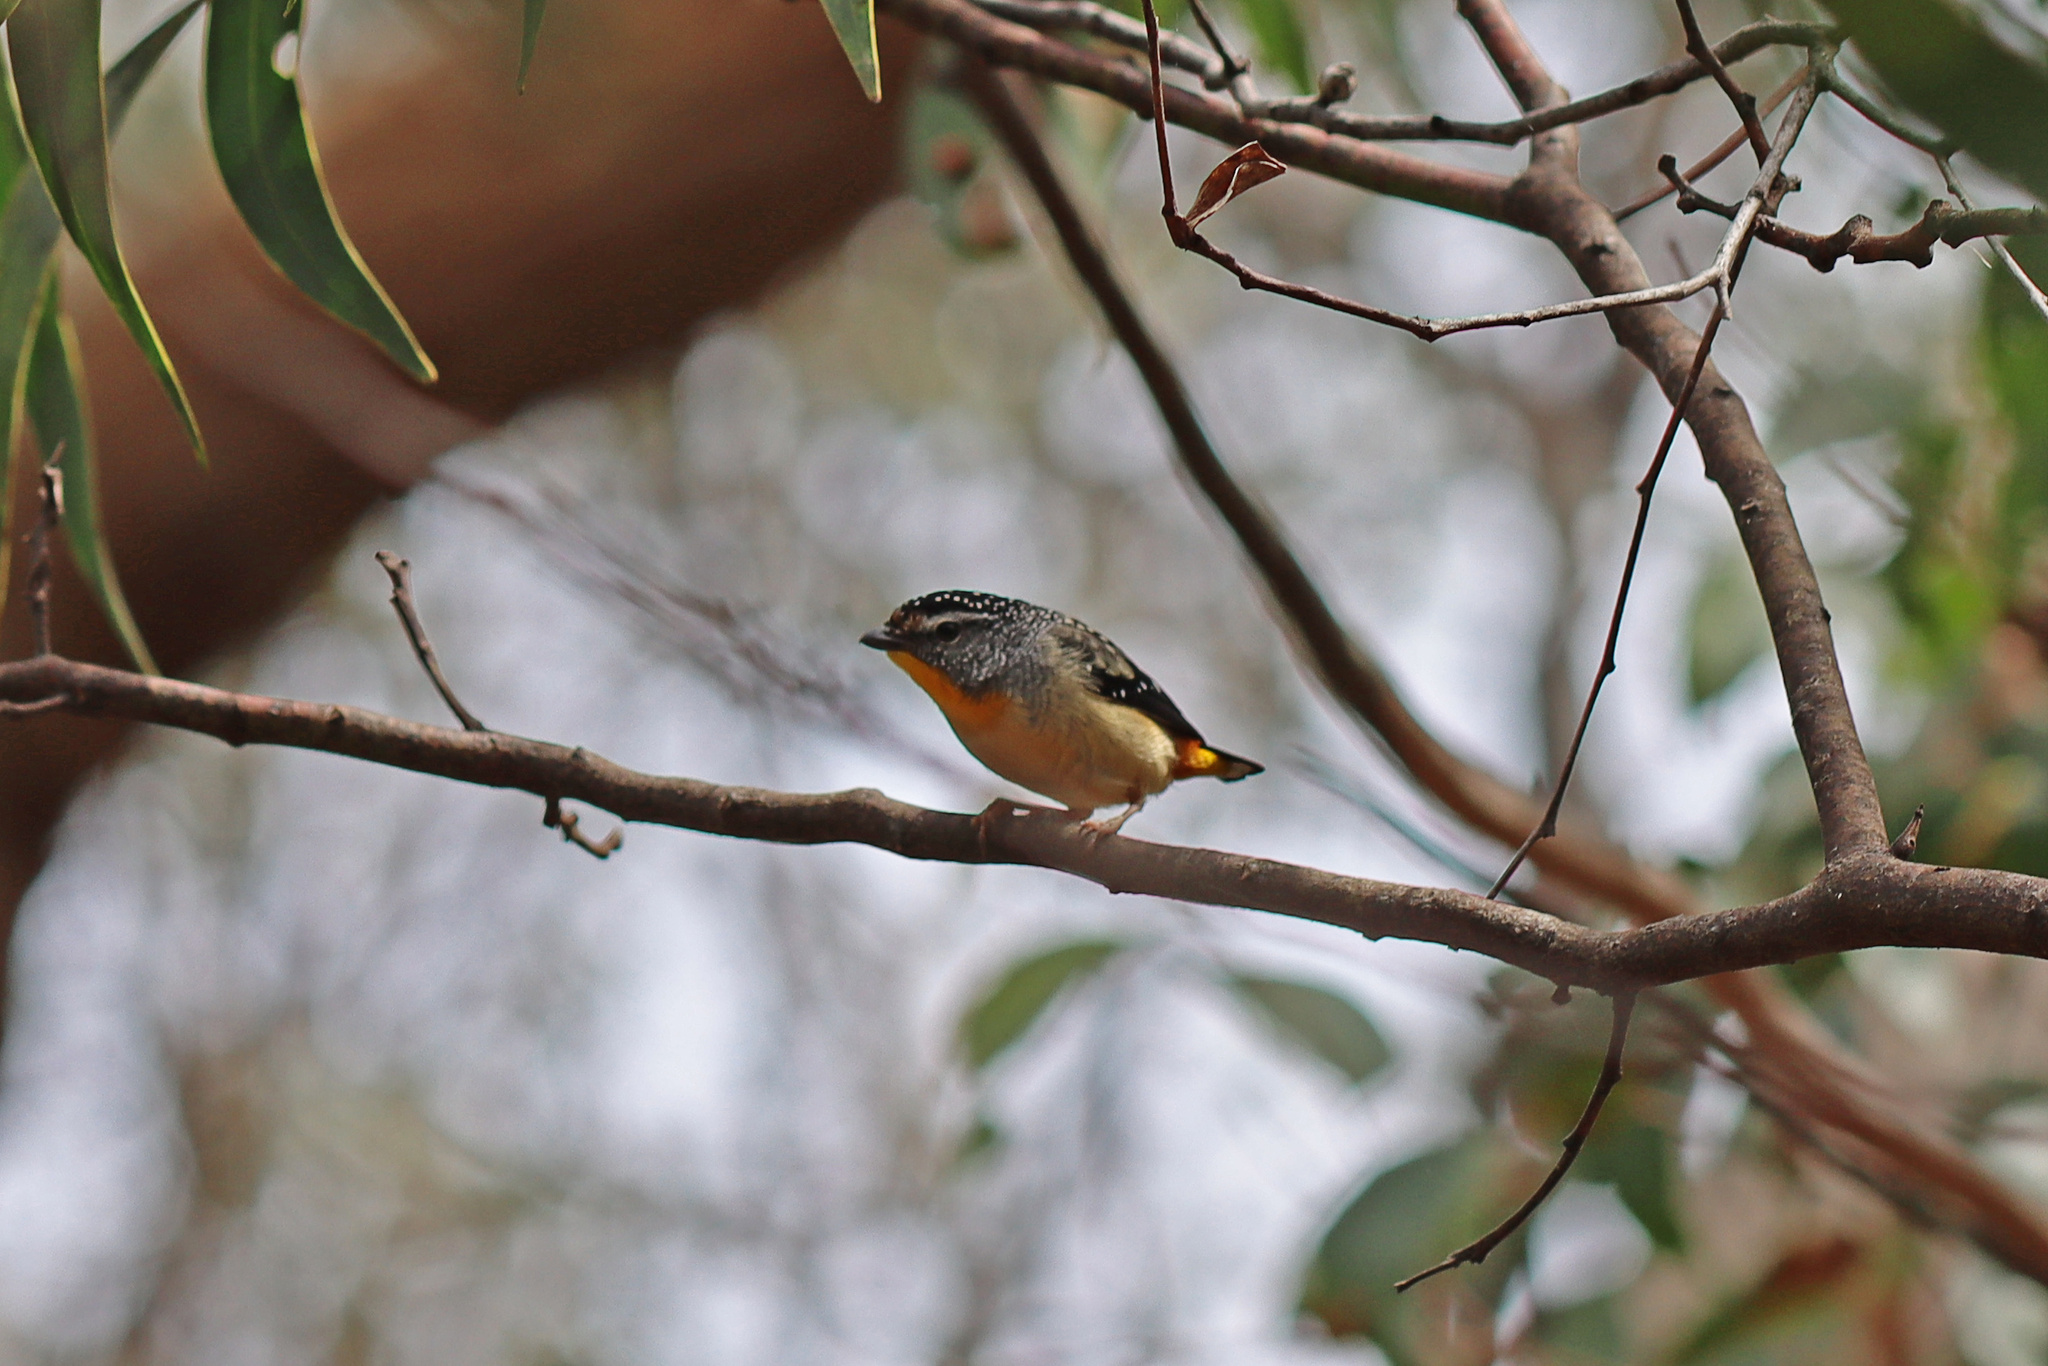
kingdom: Animalia
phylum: Chordata
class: Aves
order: Passeriformes
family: Pardalotidae
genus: Pardalotus
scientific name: Pardalotus punctatus
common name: Spotted pardalote
